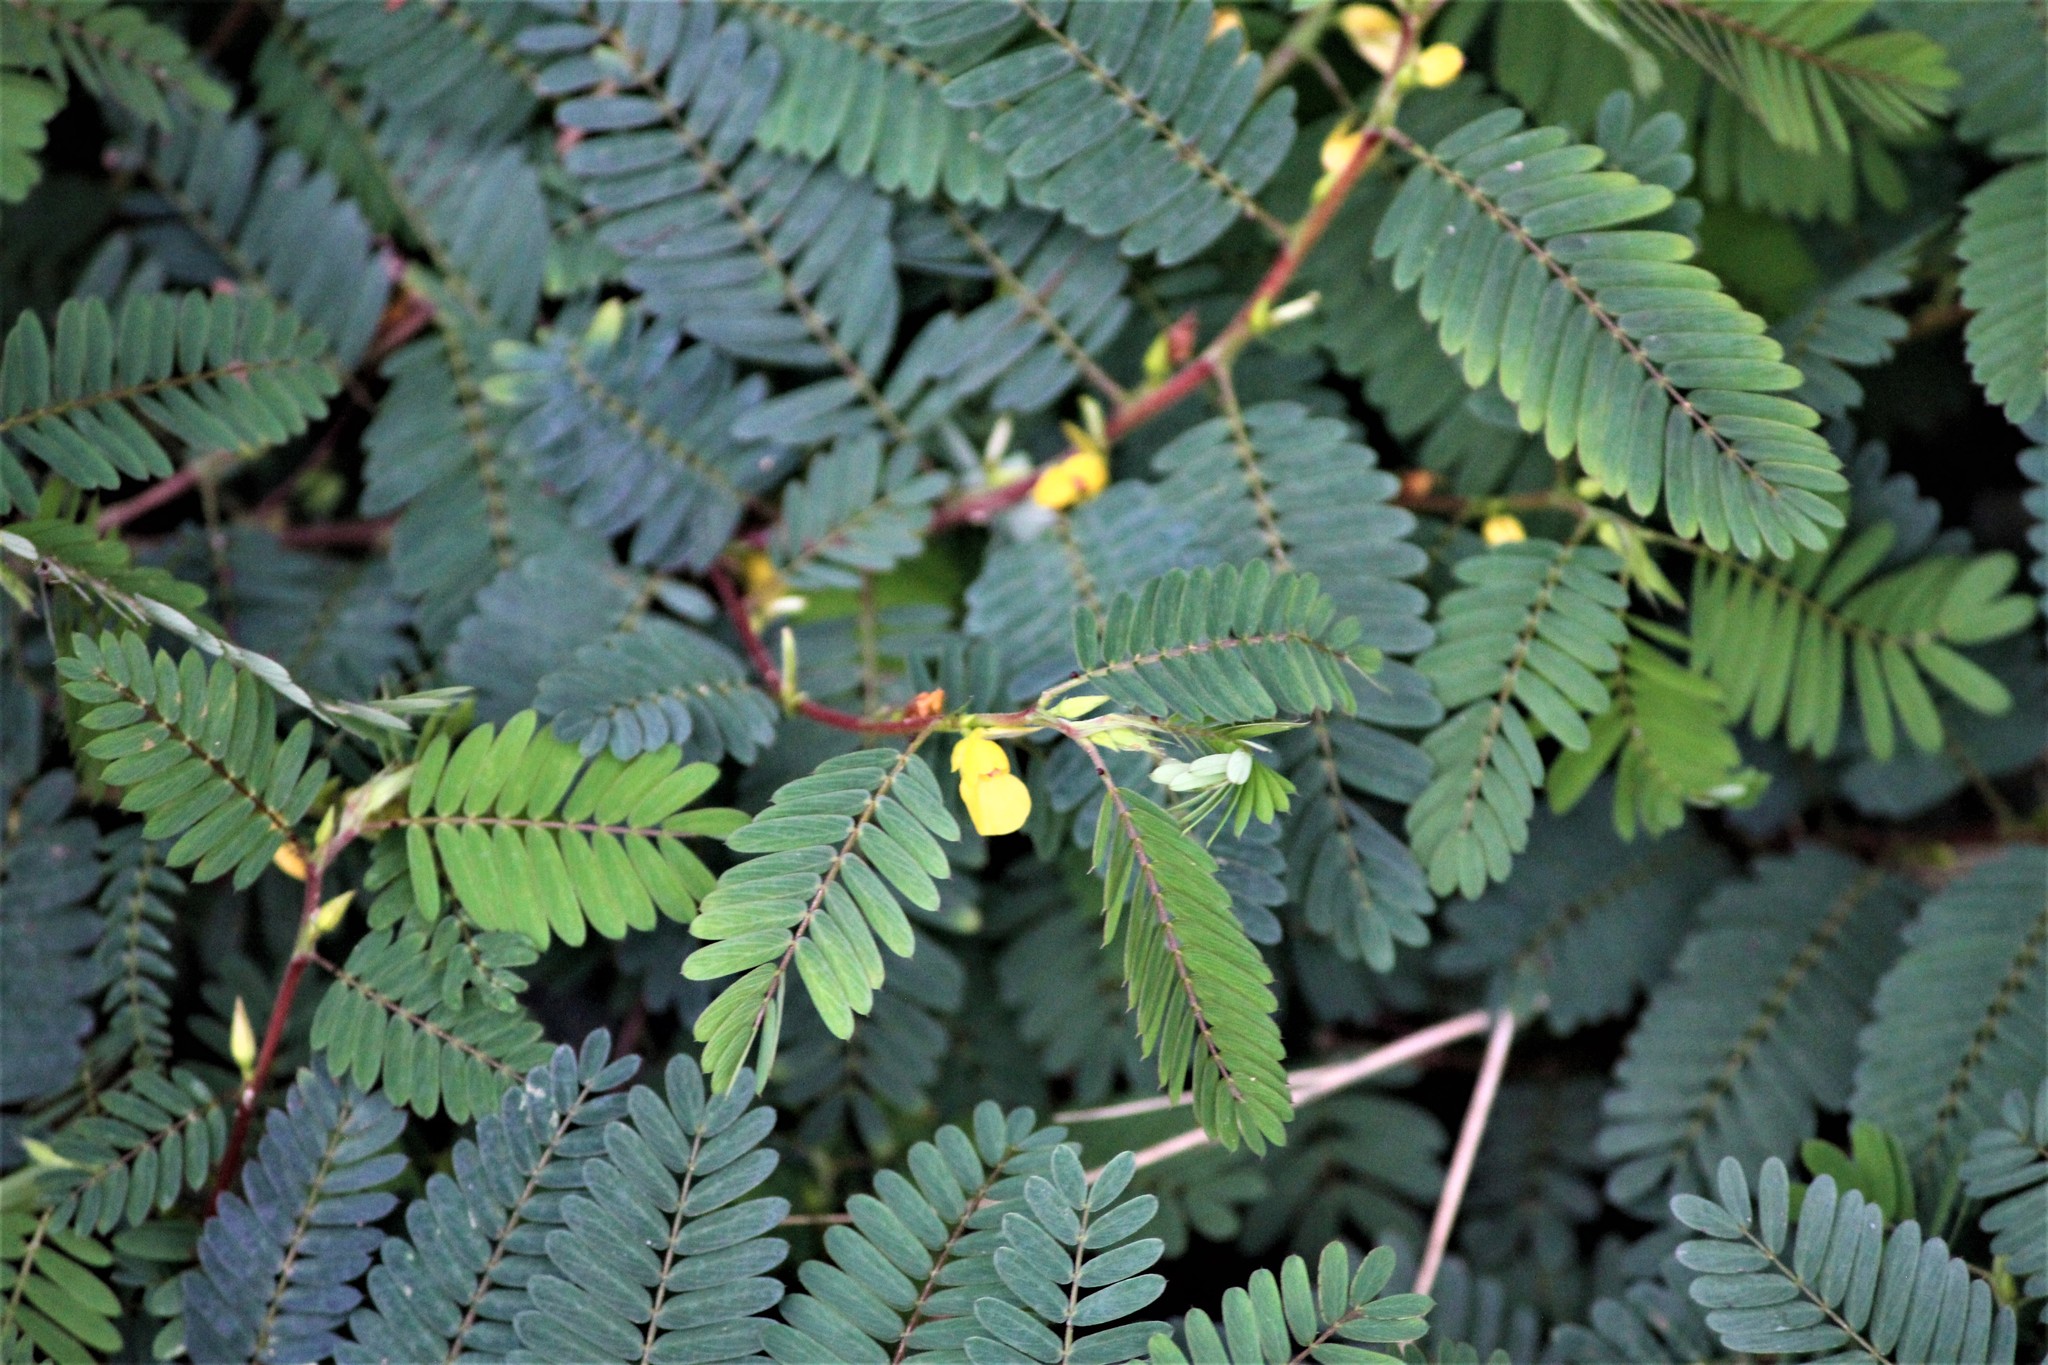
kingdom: Plantae
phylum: Tracheophyta
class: Magnoliopsida
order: Fabales
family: Fabaceae
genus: Chamaecrista
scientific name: Chamaecrista nictitans
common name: Sensitive cassia
